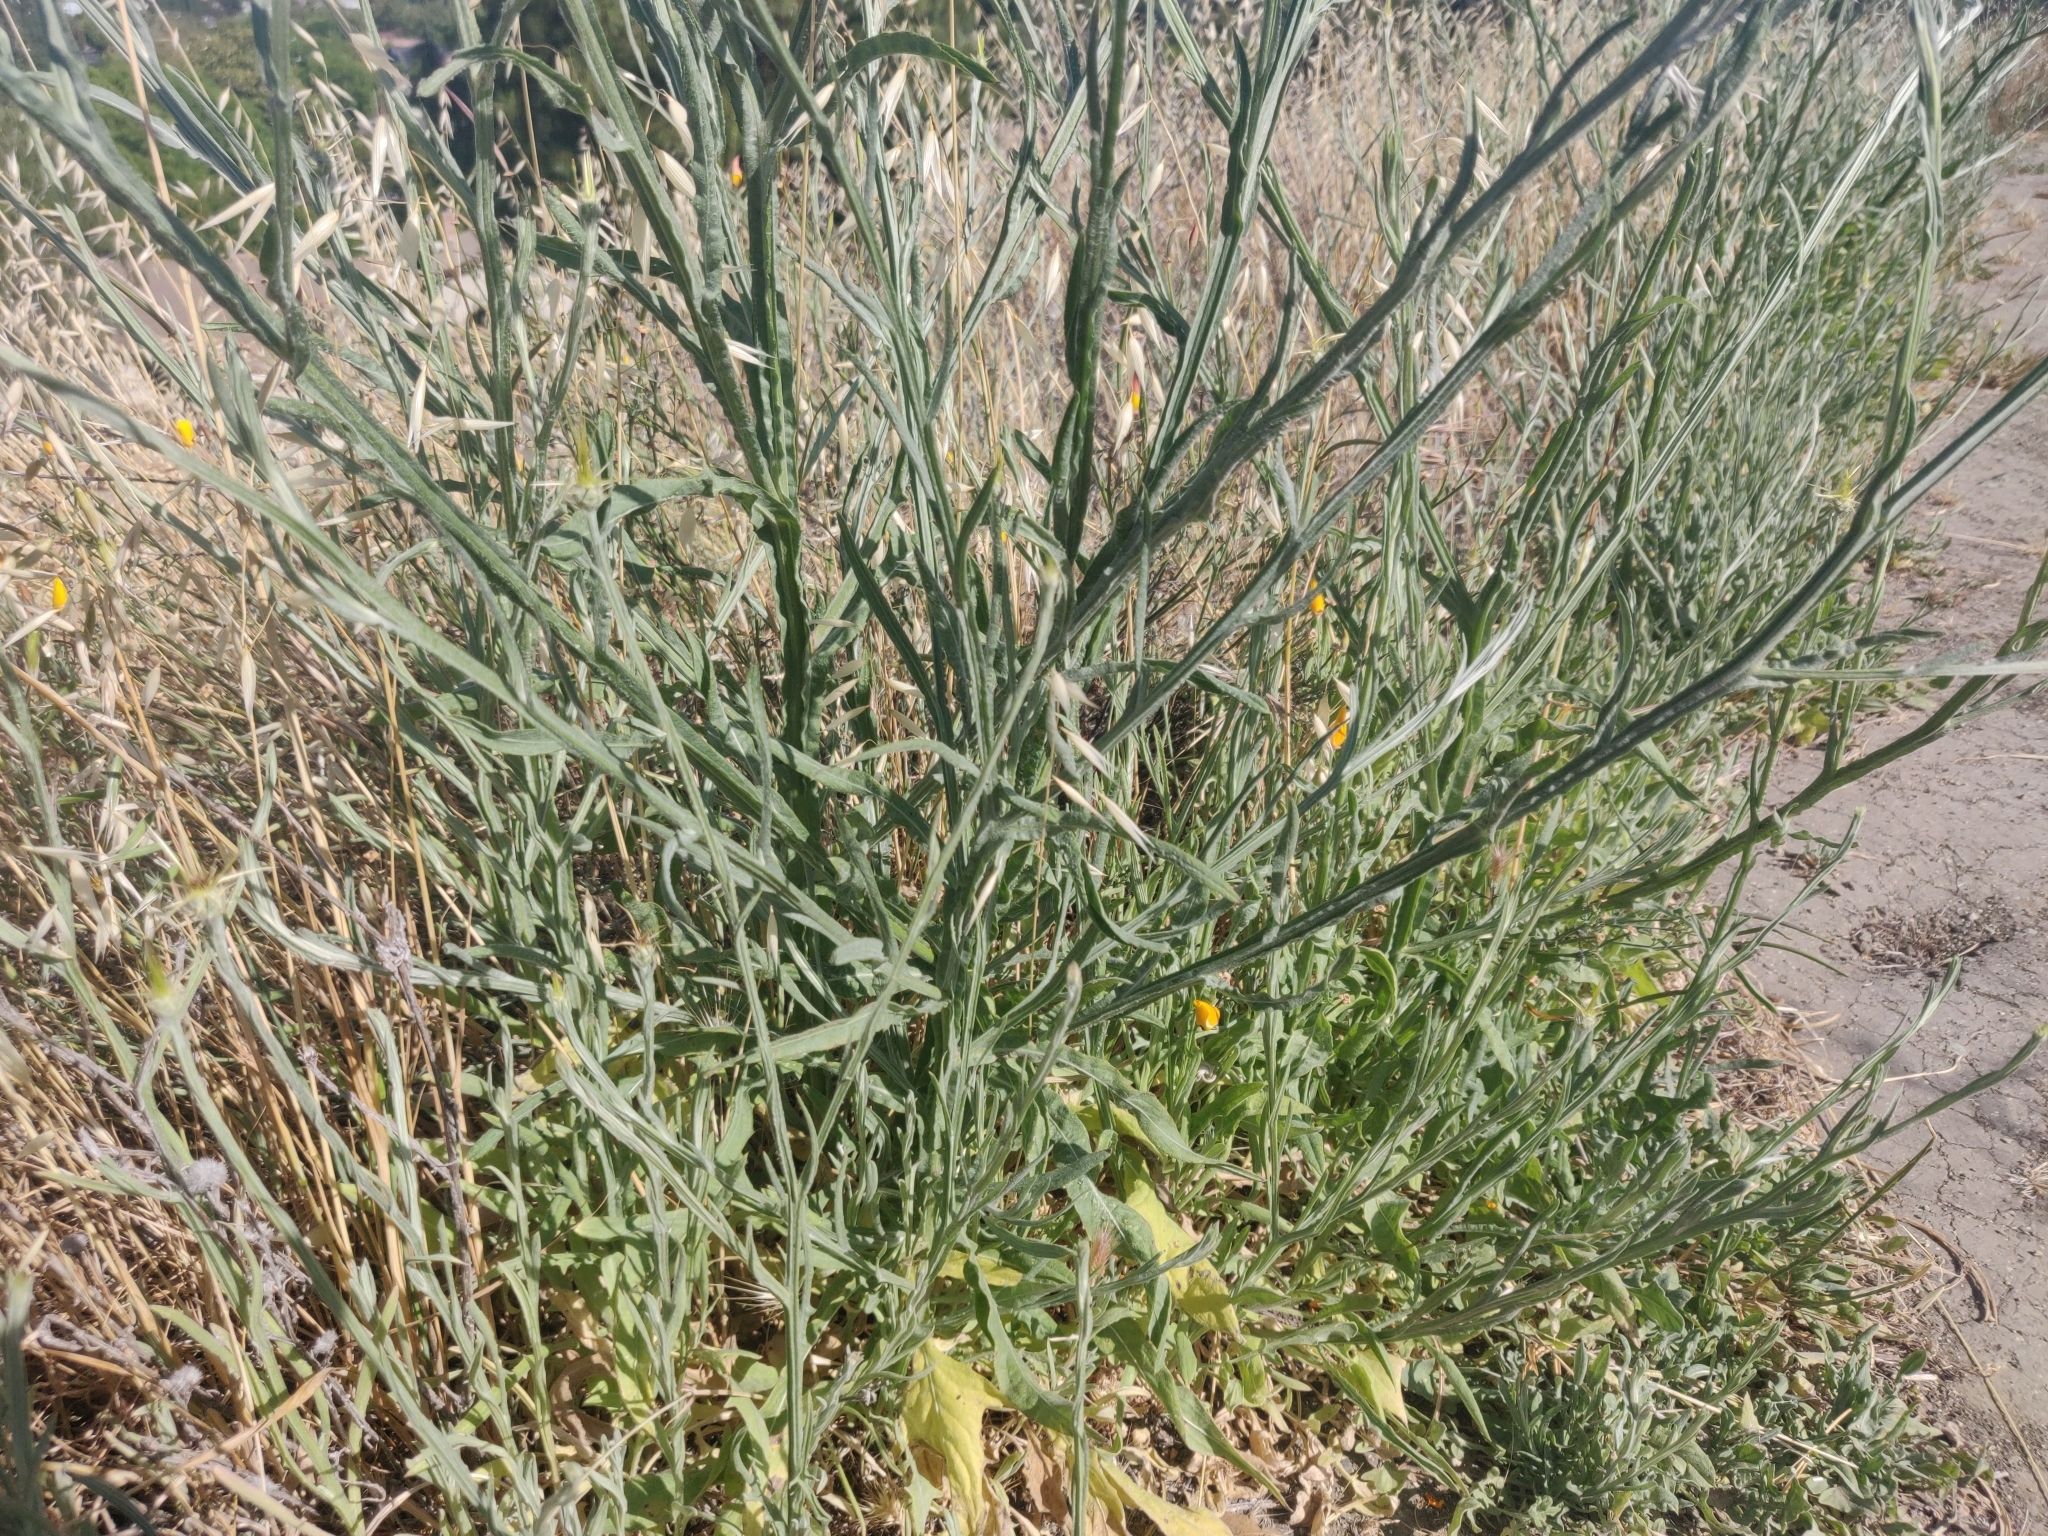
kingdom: Plantae
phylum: Tracheophyta
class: Magnoliopsida
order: Asterales
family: Asteraceae
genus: Centaurea
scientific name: Centaurea solstitialis
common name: Yellow star-thistle
